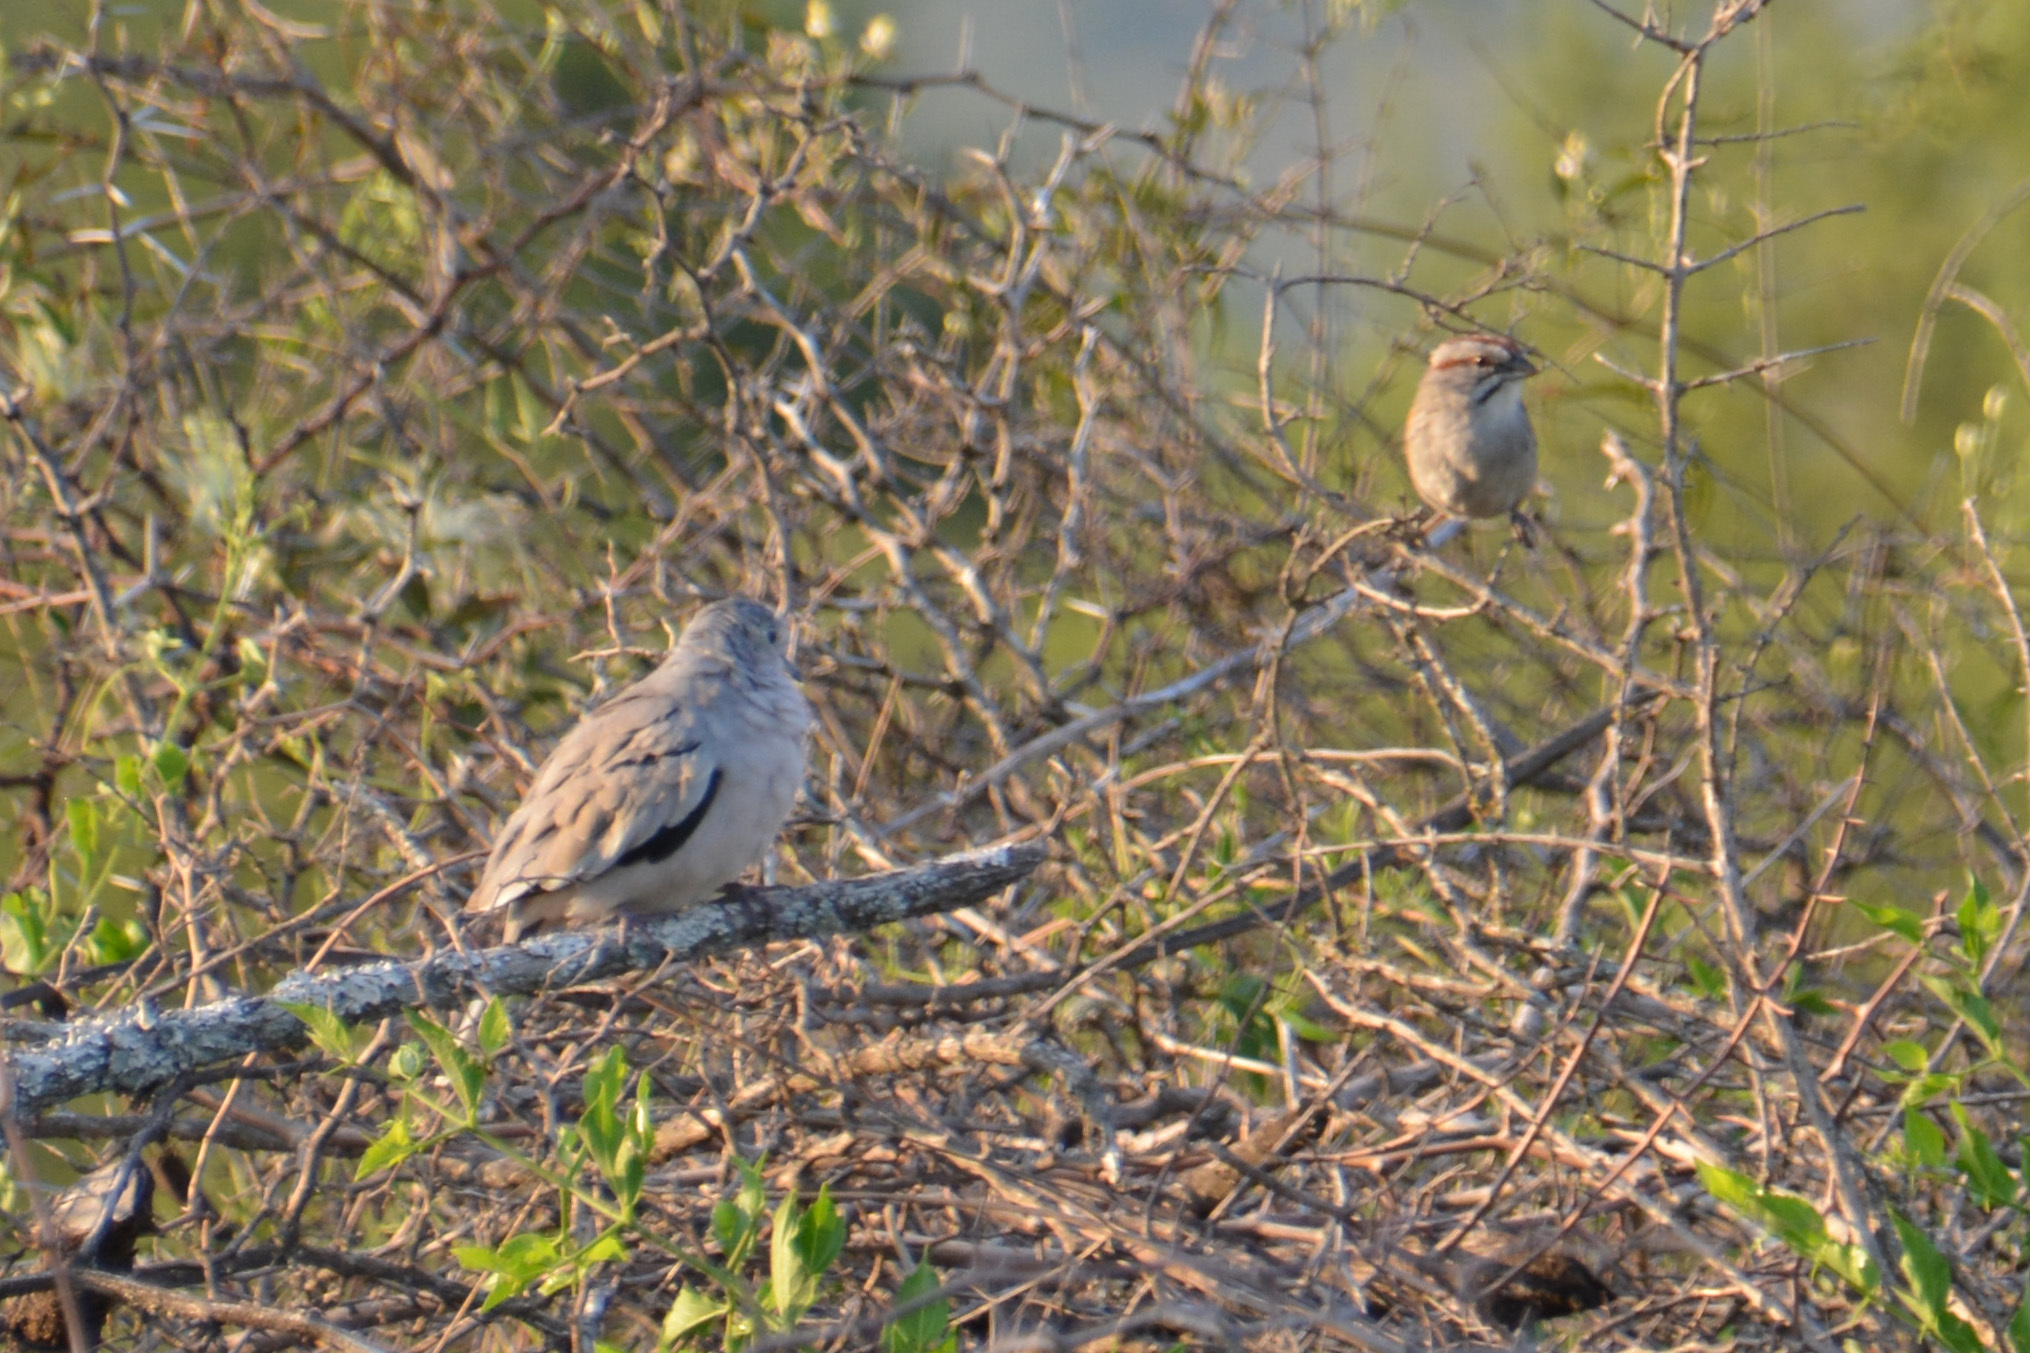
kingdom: Animalia
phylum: Chordata
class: Aves
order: Passeriformes
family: Passerellidae
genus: Rhynchospiza
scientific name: Rhynchospiza strigiceps
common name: Stripe-capped sparrow
